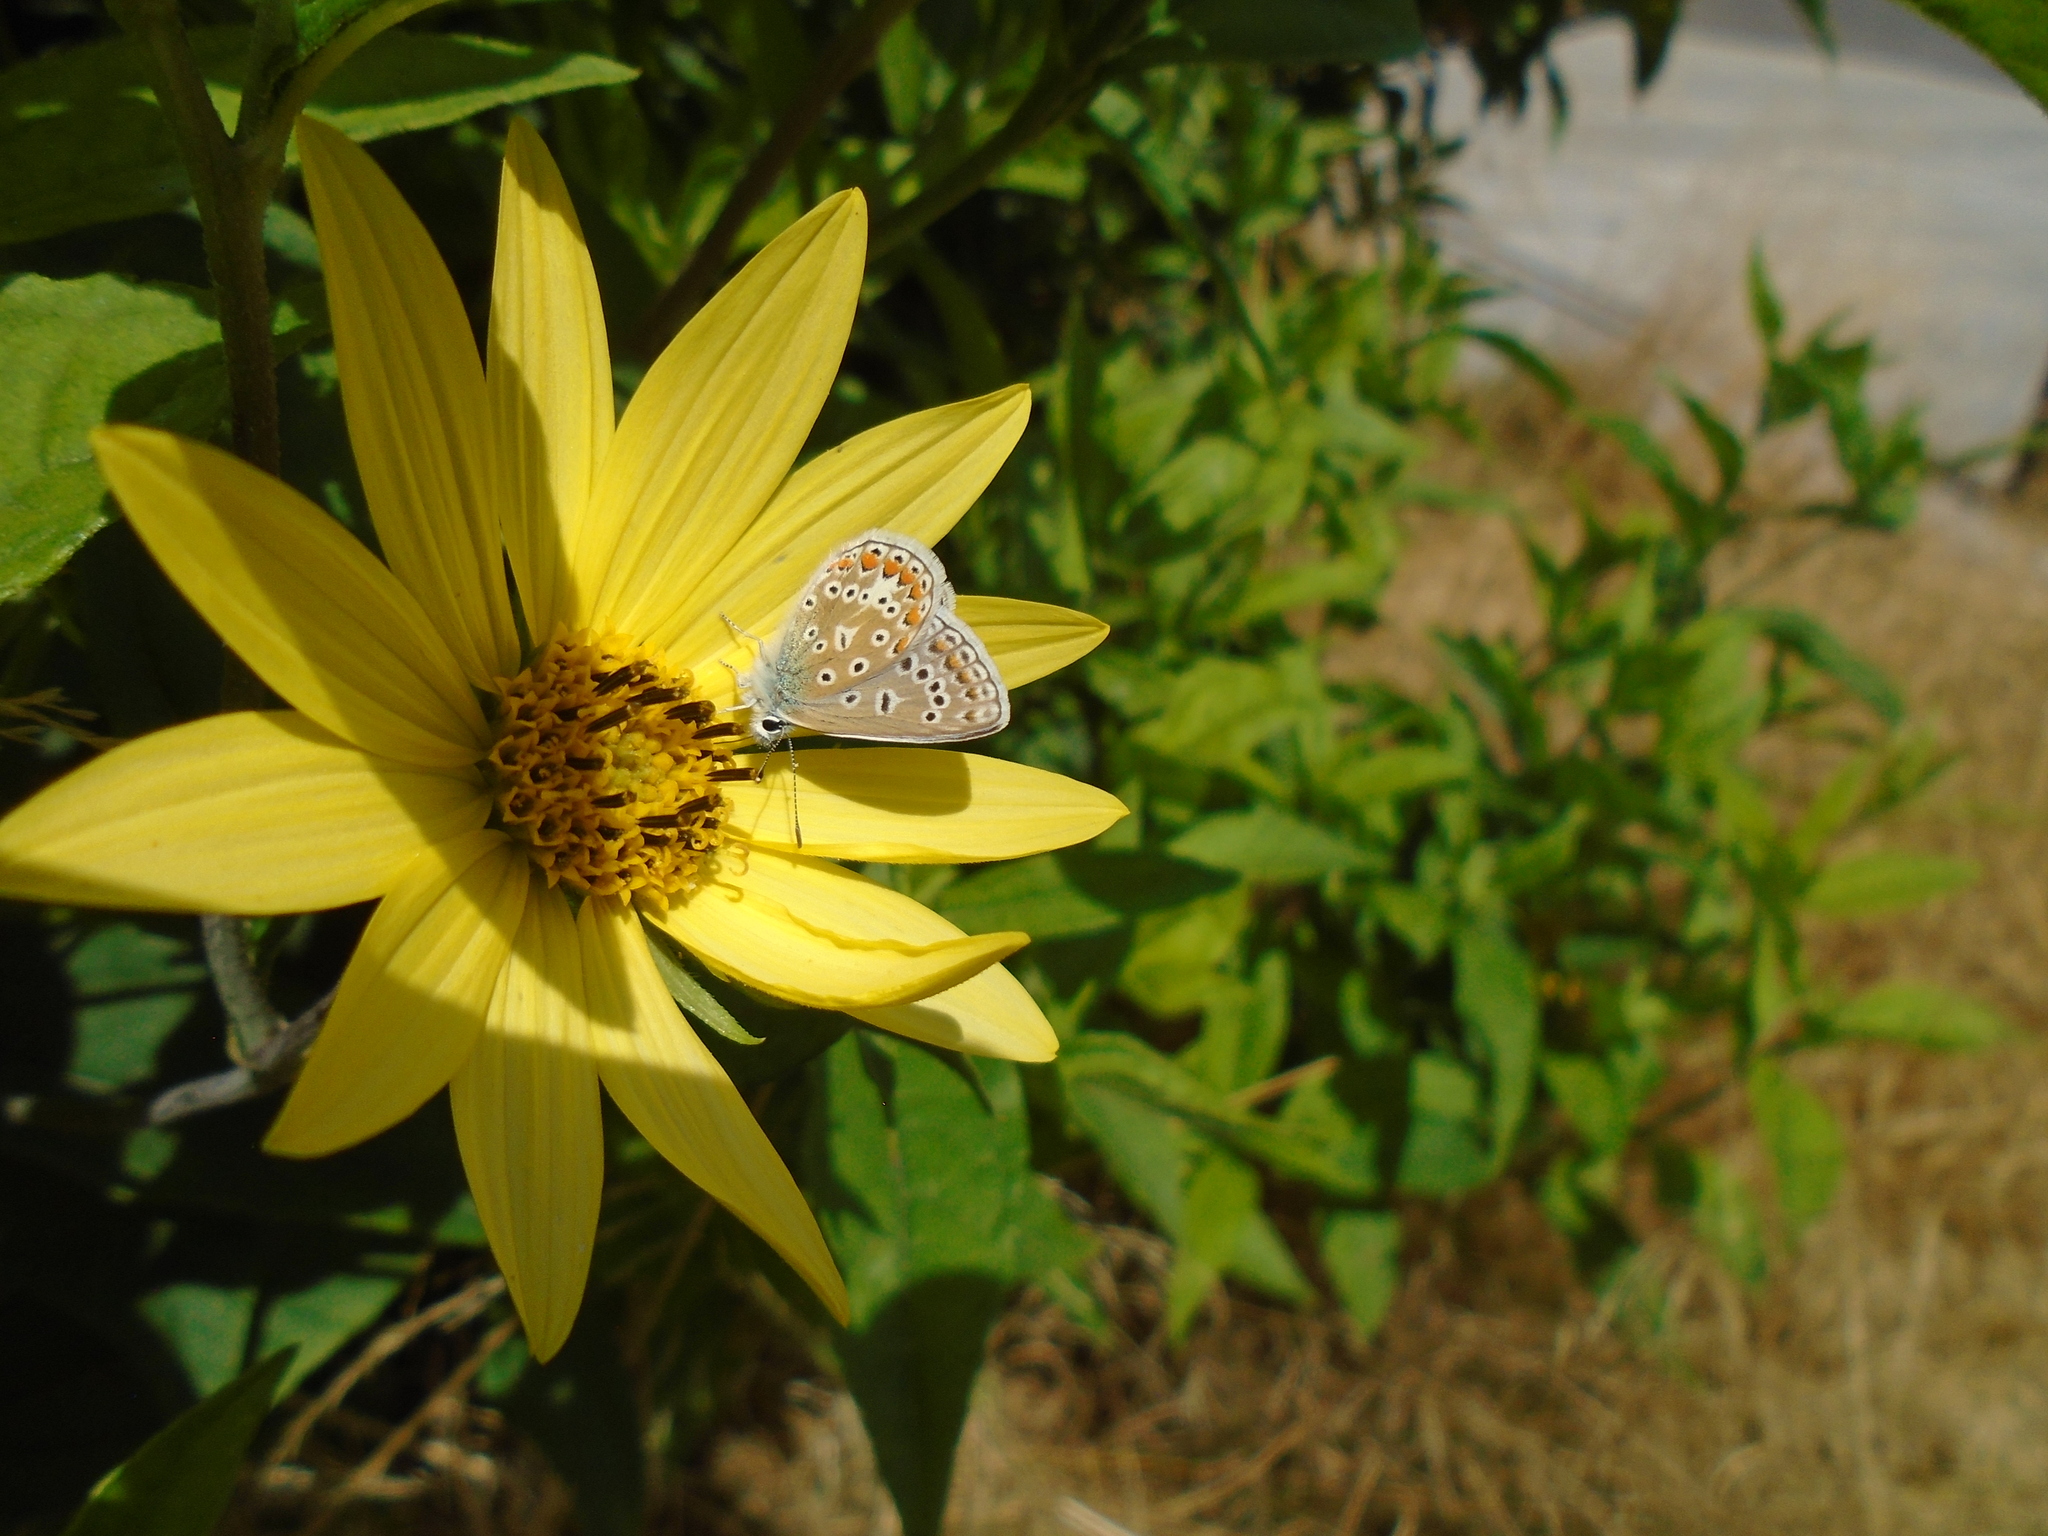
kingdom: Animalia
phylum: Arthropoda
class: Insecta
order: Lepidoptera
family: Lycaenidae
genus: Polyommatus
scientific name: Polyommatus icarus
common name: Common blue
